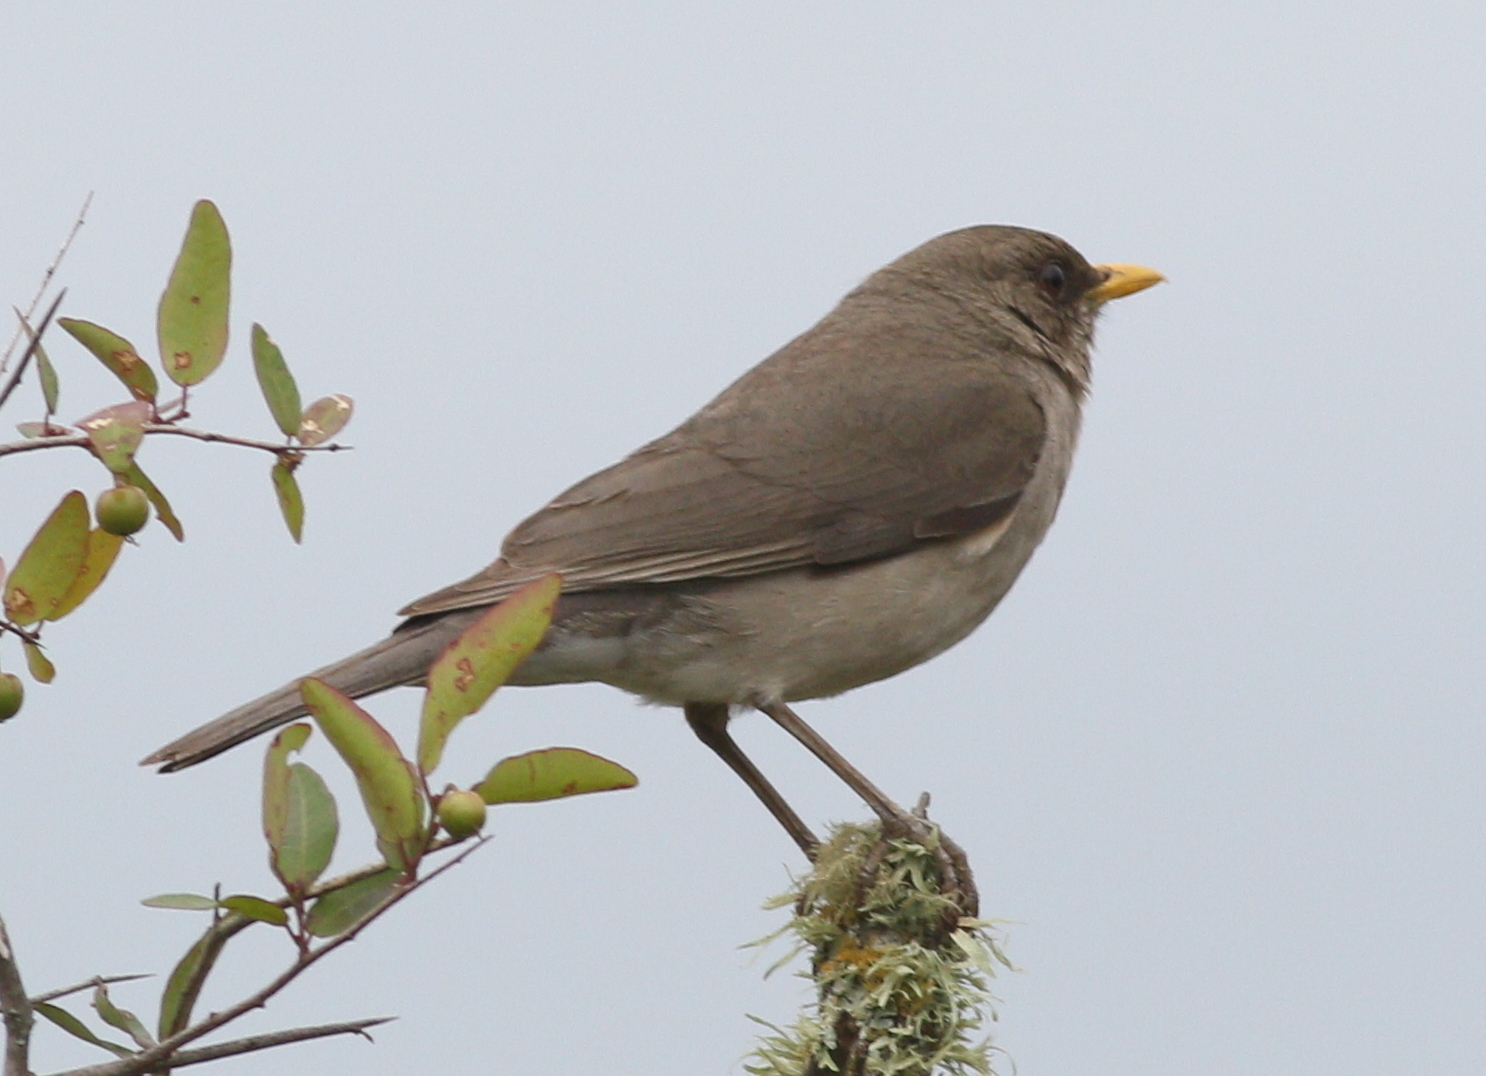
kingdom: Animalia
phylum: Chordata
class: Aves
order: Passeriformes
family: Turdidae
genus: Turdus
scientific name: Turdus amaurochalinus
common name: Creamy-bellied thrush
